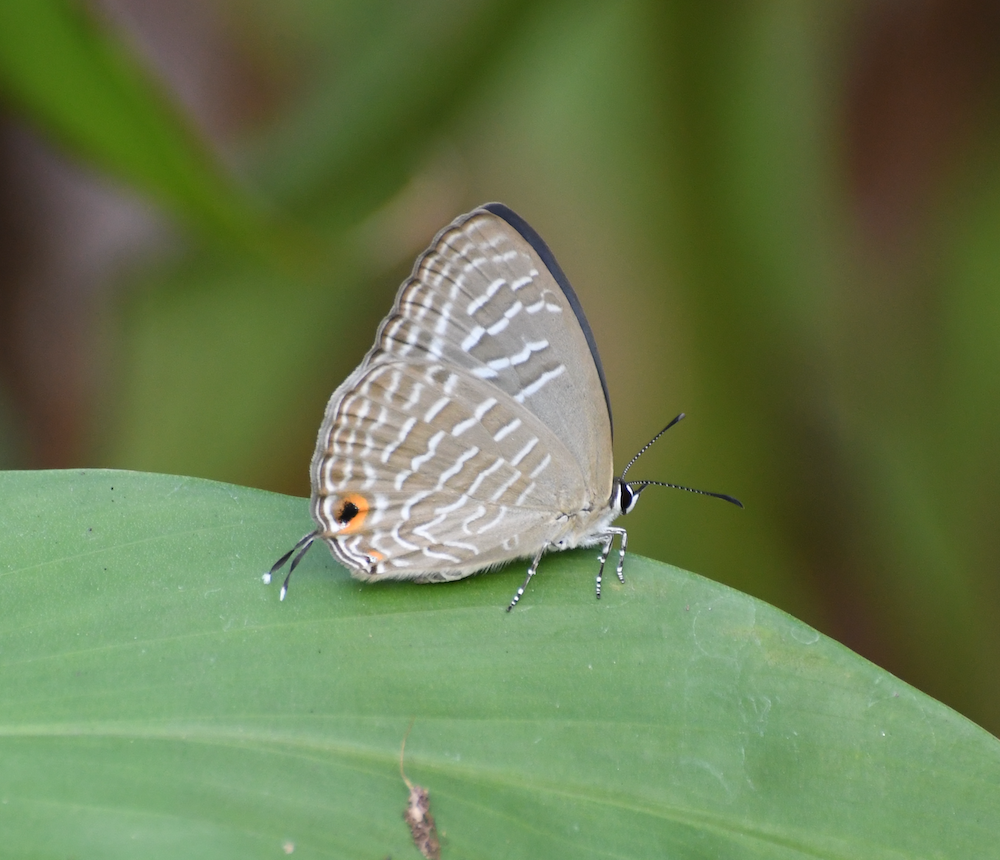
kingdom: Animalia
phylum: Arthropoda
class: Insecta
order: Lepidoptera
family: Lycaenidae
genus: Jamides
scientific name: Jamides alecto
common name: Metallic cerulean
